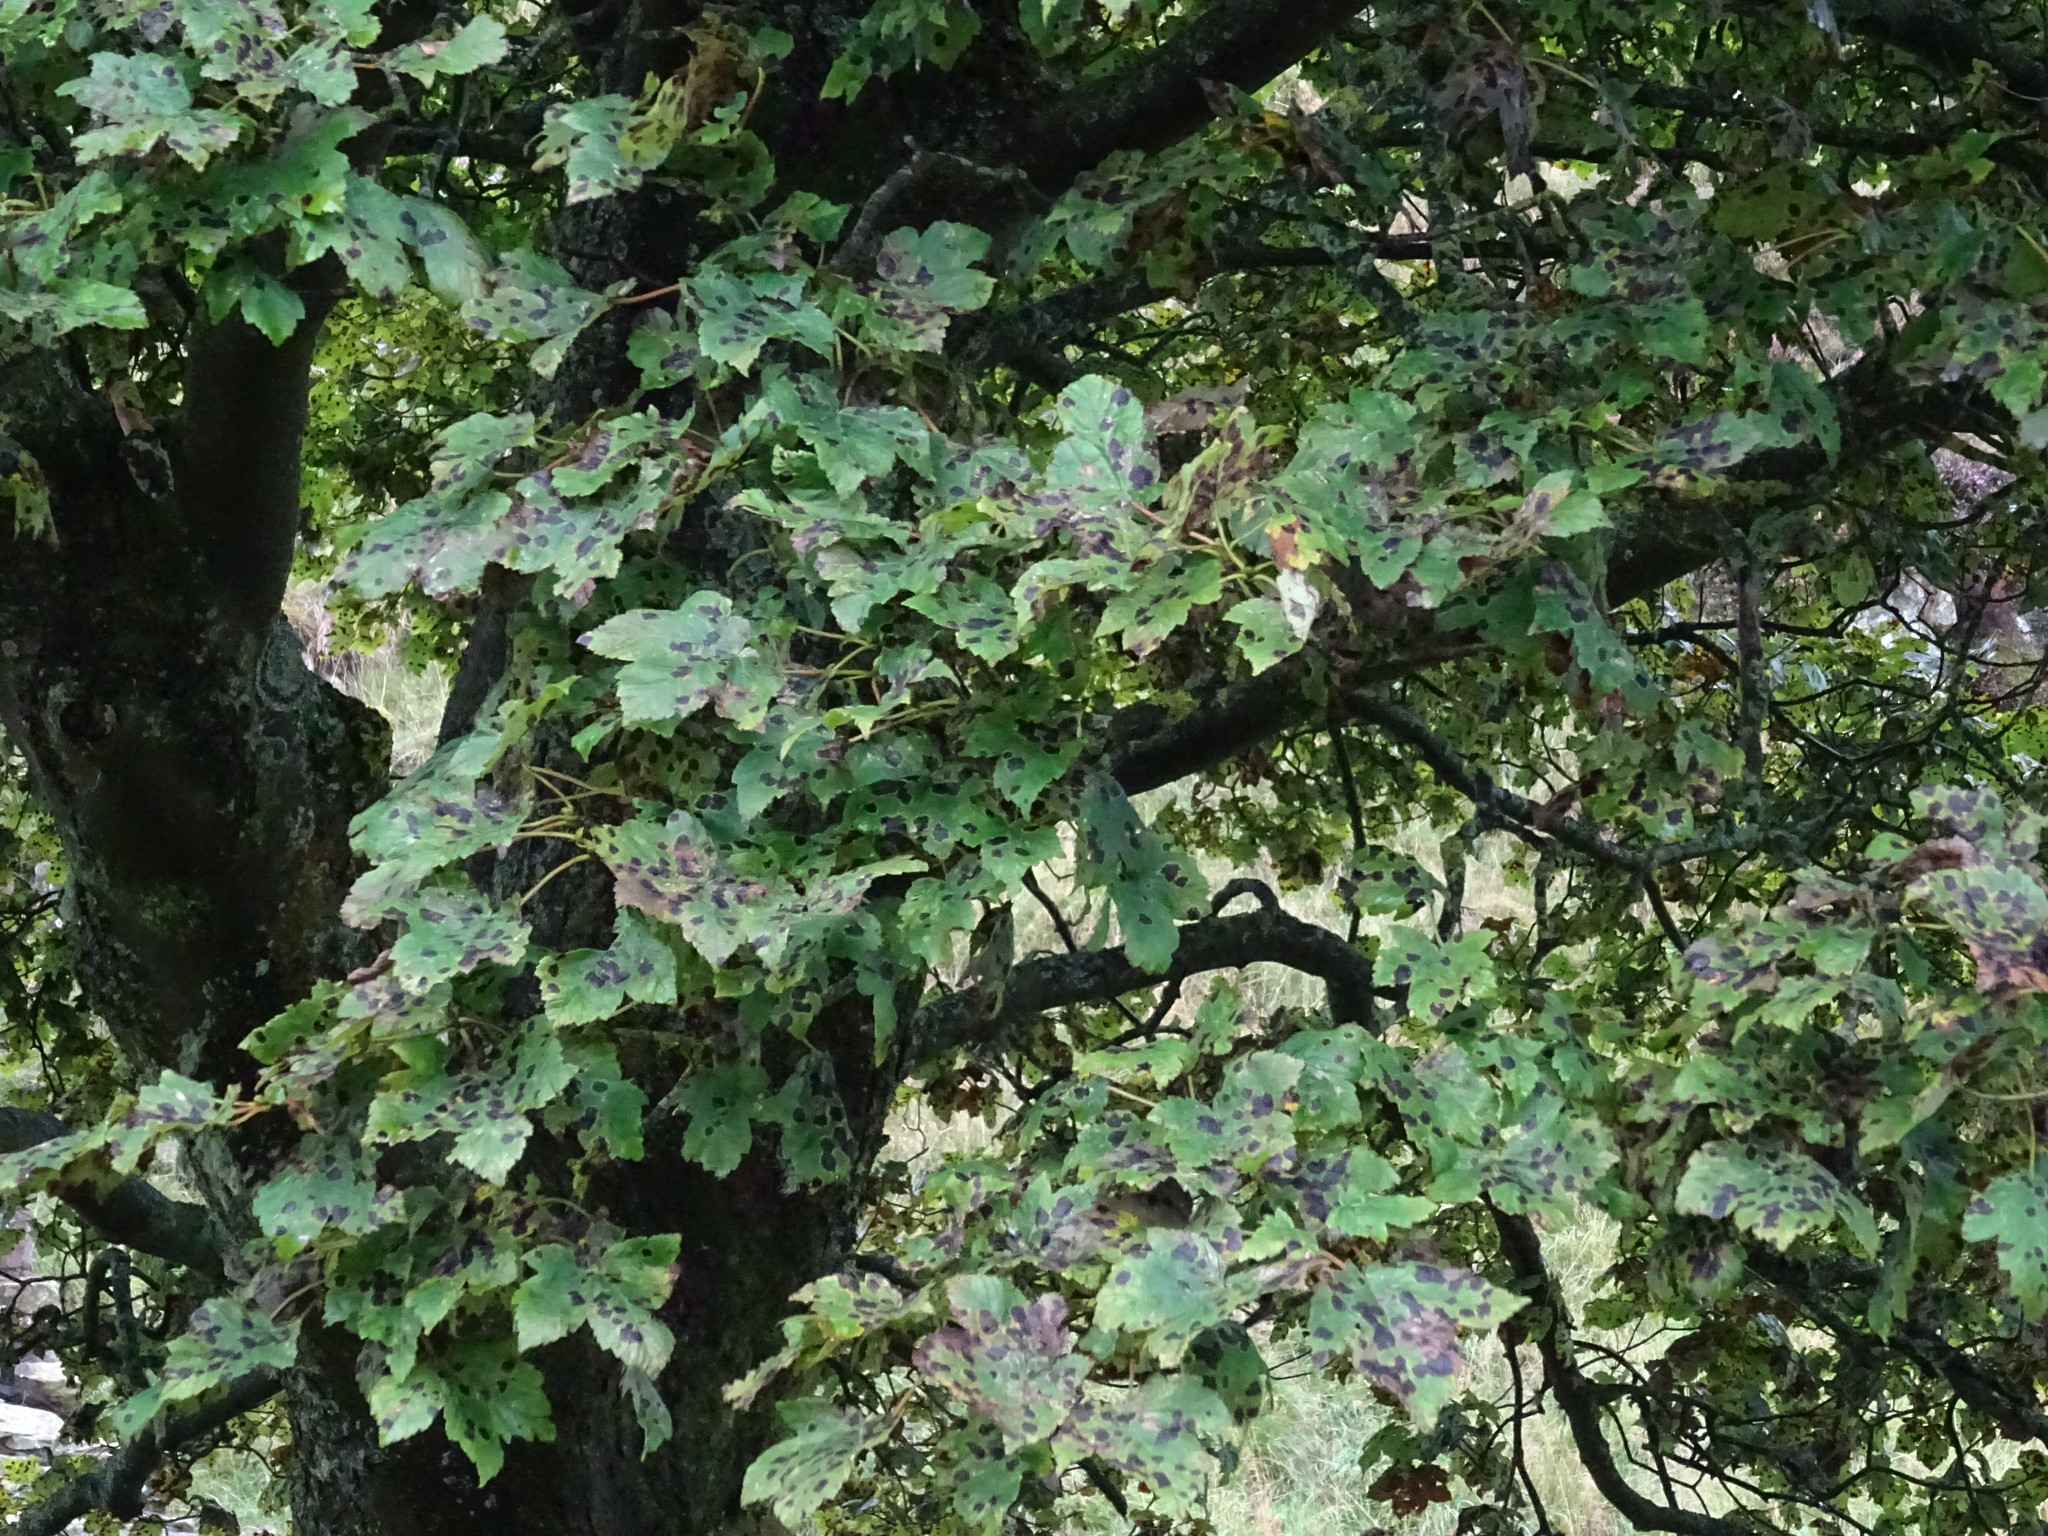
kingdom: Plantae
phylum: Tracheophyta
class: Magnoliopsida
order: Sapindales
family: Sapindaceae
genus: Acer
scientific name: Acer pseudoplatanus
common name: Sycamore
